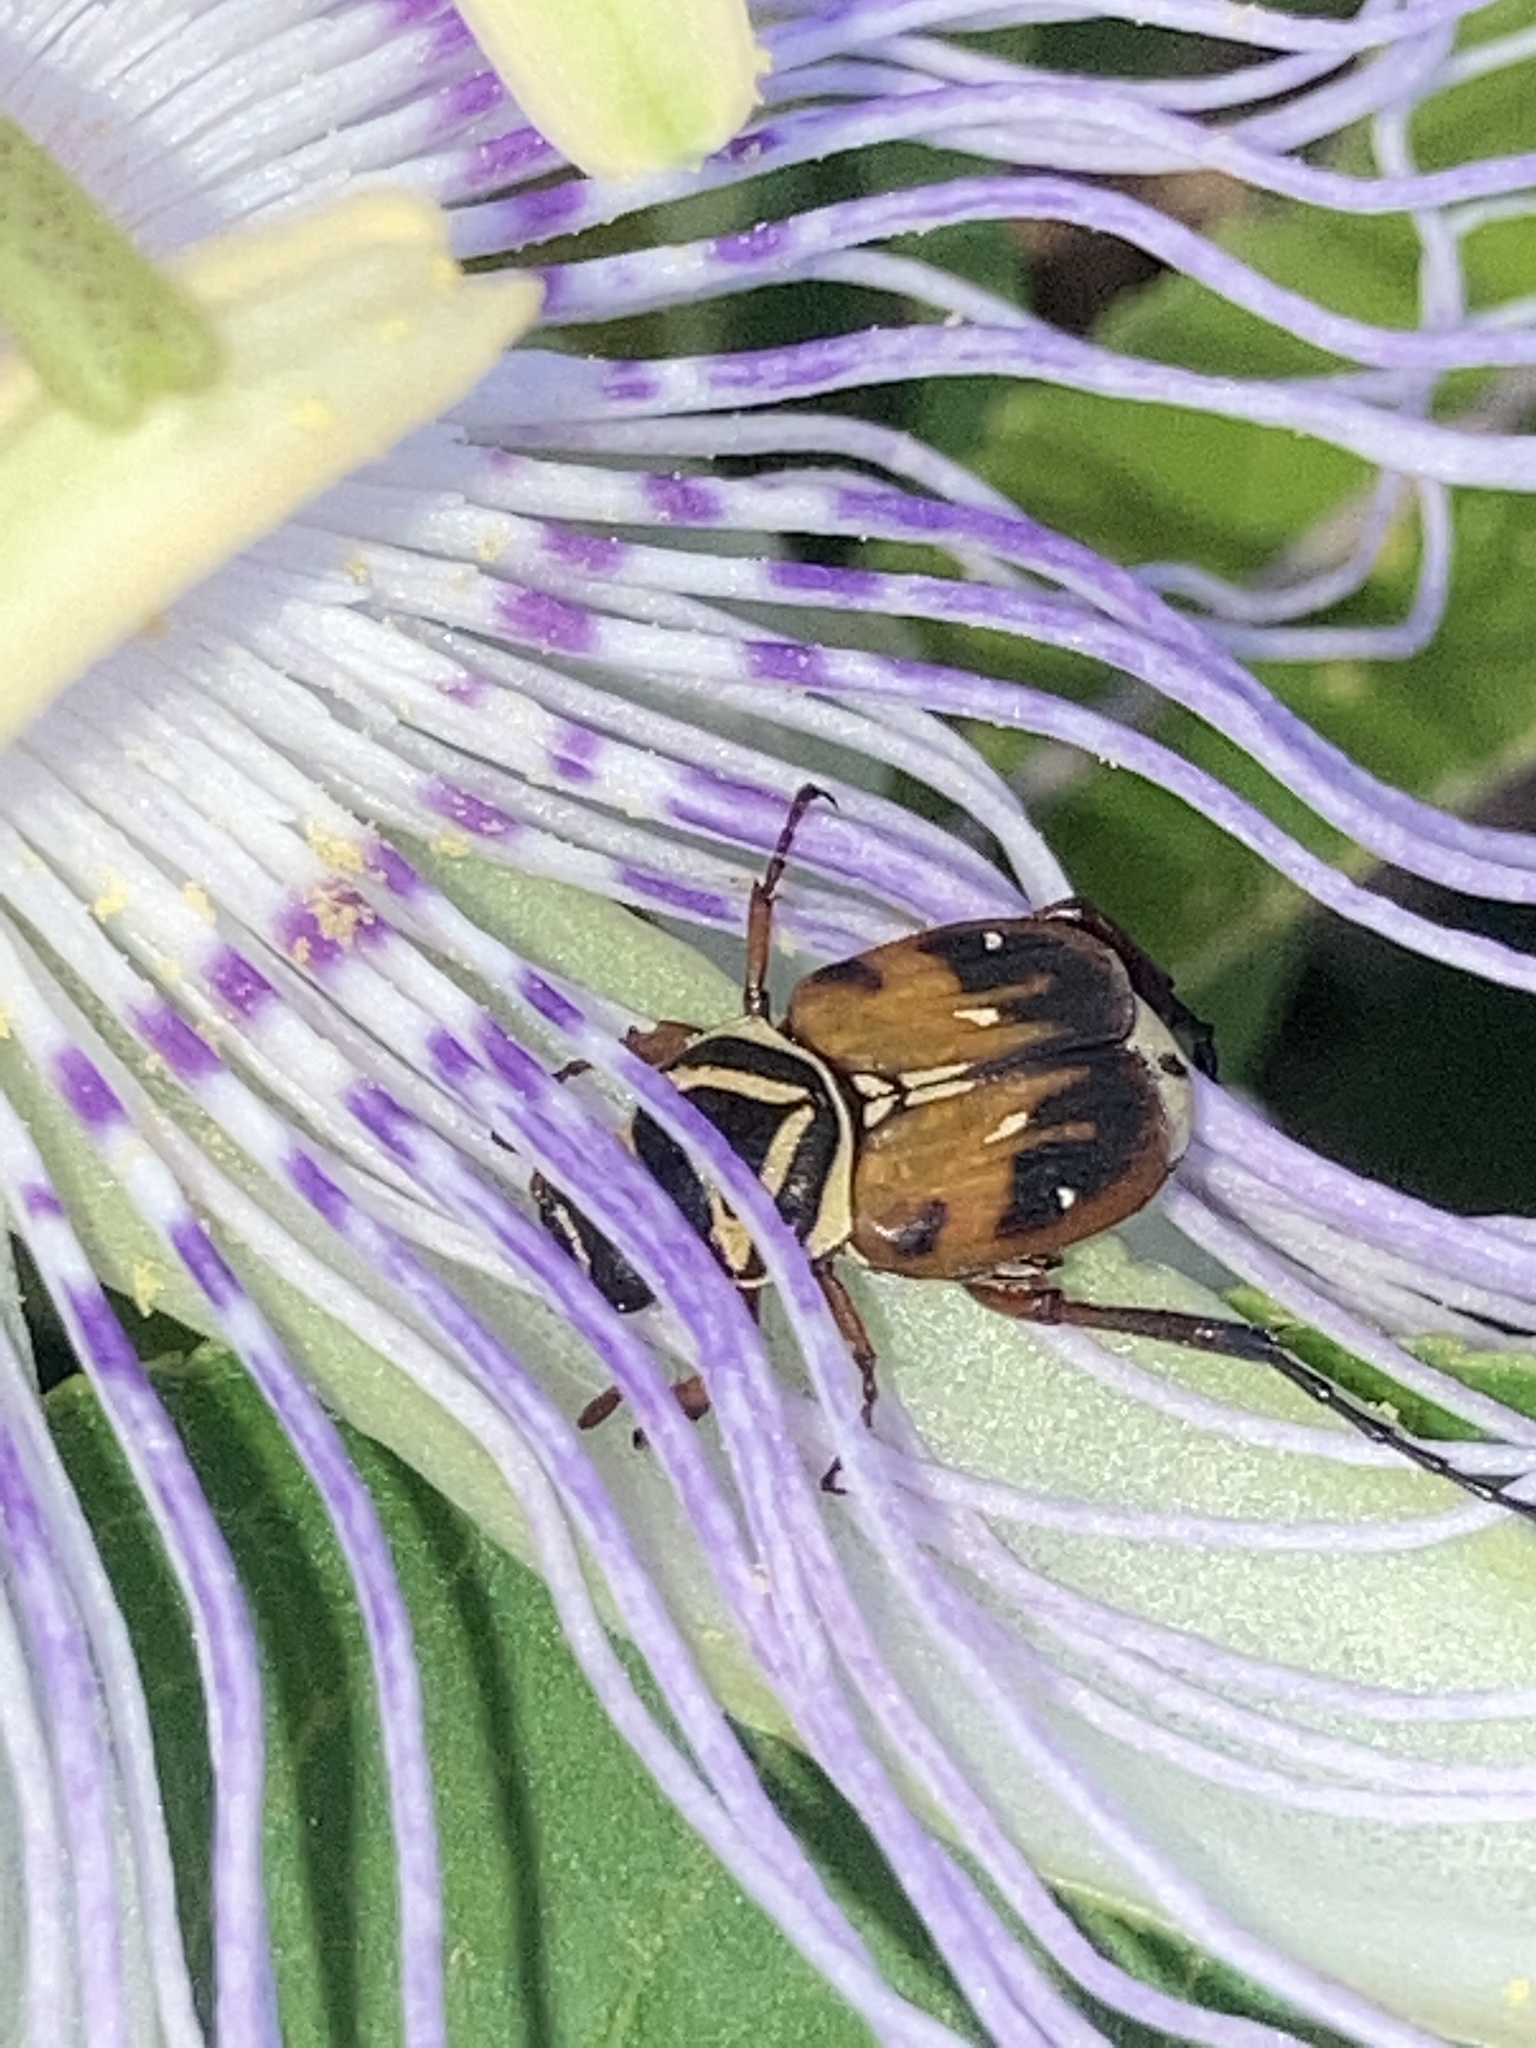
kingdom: Animalia
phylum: Arthropoda
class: Insecta
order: Coleoptera
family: Scarabaeidae
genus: Trigonopeltastes
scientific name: Trigonopeltastes delta
